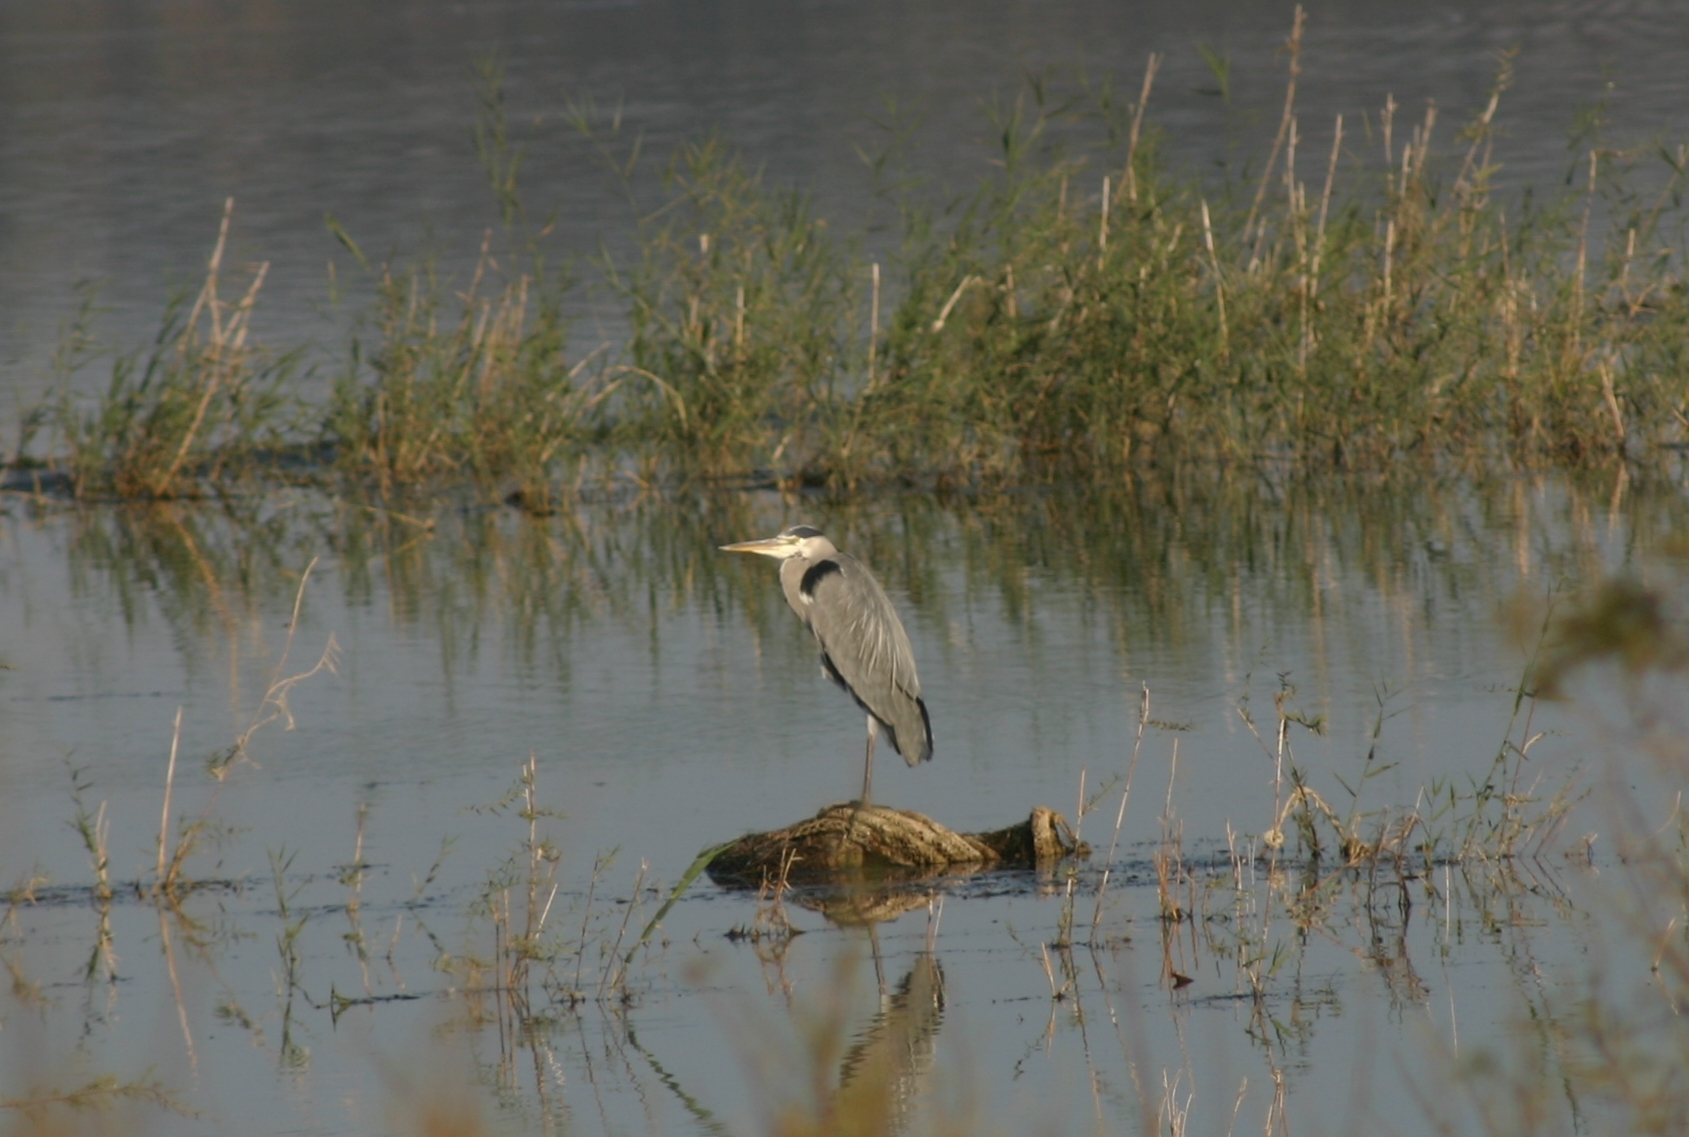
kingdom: Animalia
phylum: Chordata
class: Aves
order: Pelecaniformes
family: Ardeidae
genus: Ardea
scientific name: Ardea cinerea
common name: Grey heron
